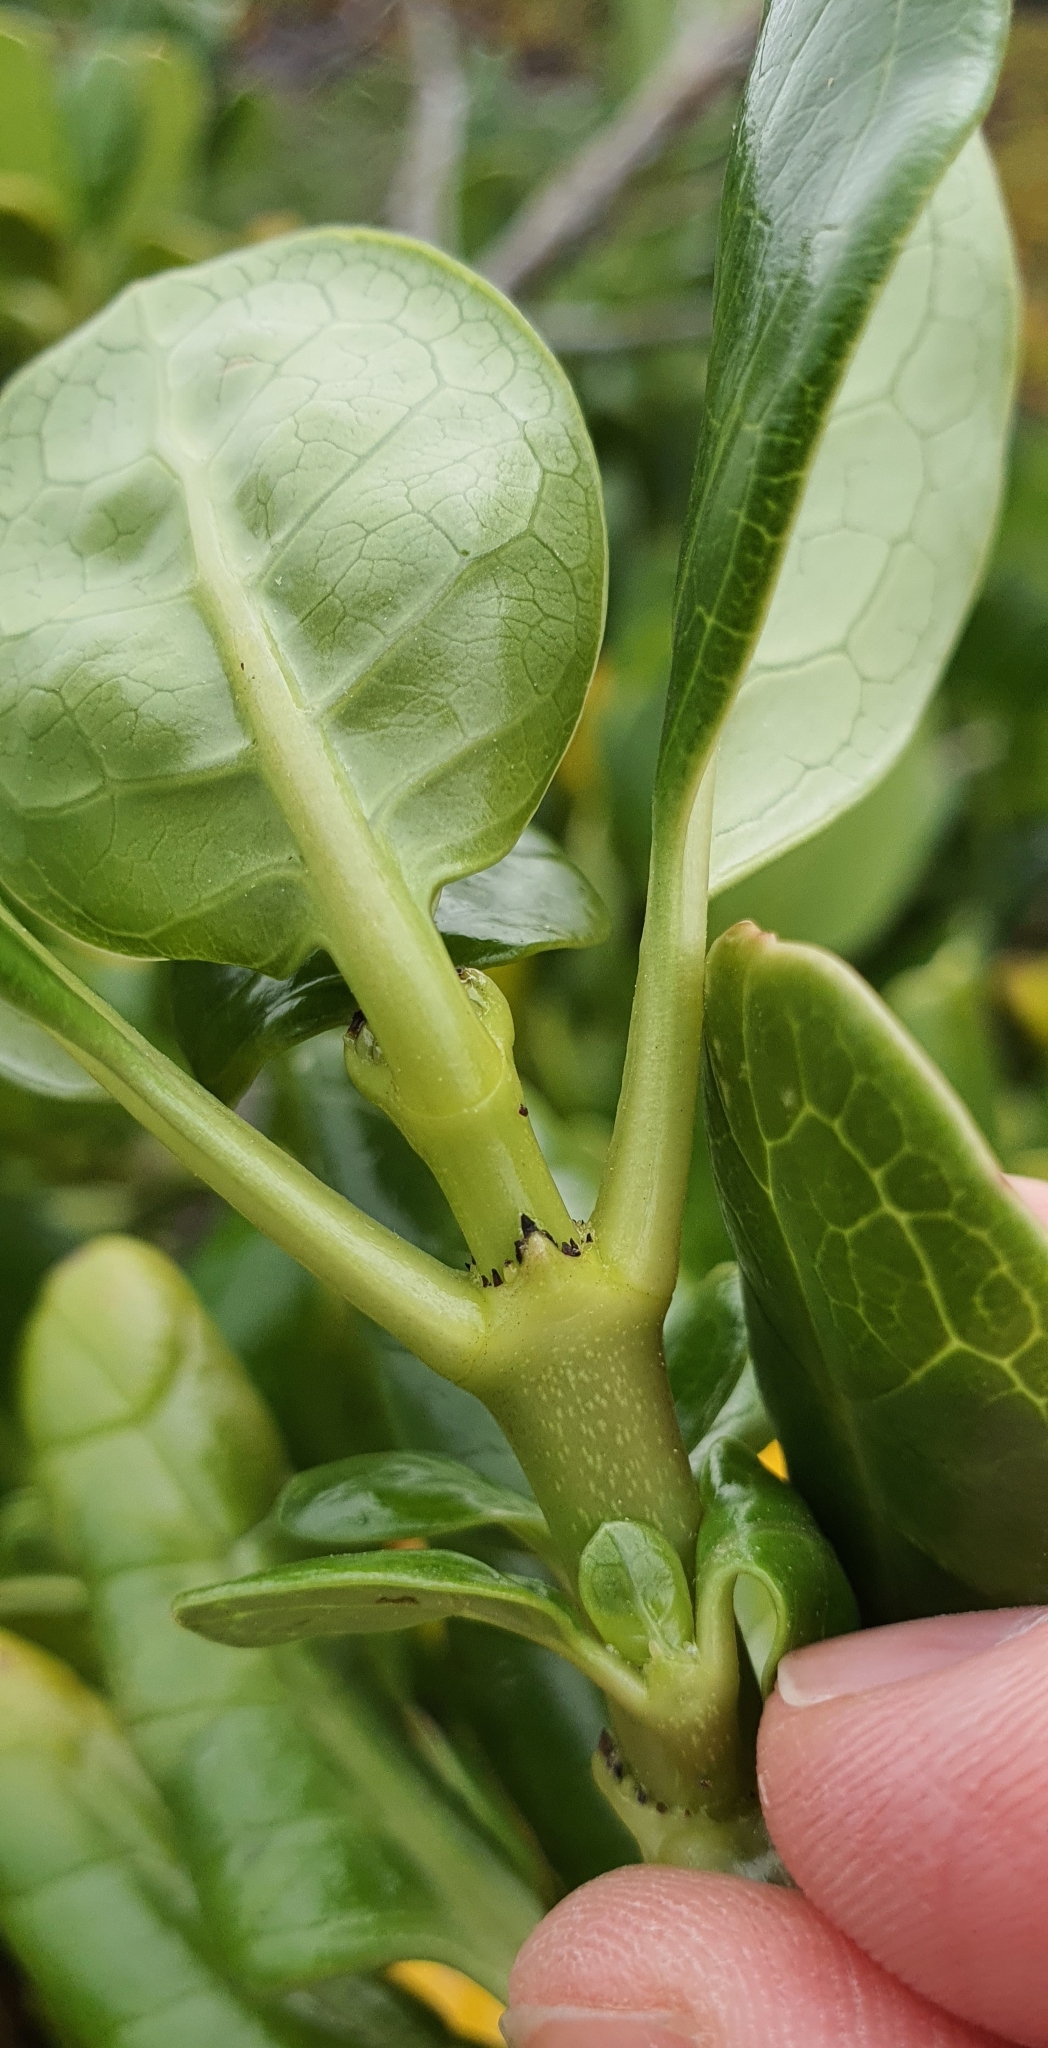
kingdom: Plantae
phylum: Tracheophyta
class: Magnoliopsida
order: Gentianales
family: Rubiaceae
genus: Coprosma
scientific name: Coprosma repens
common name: Tree bedstraw
